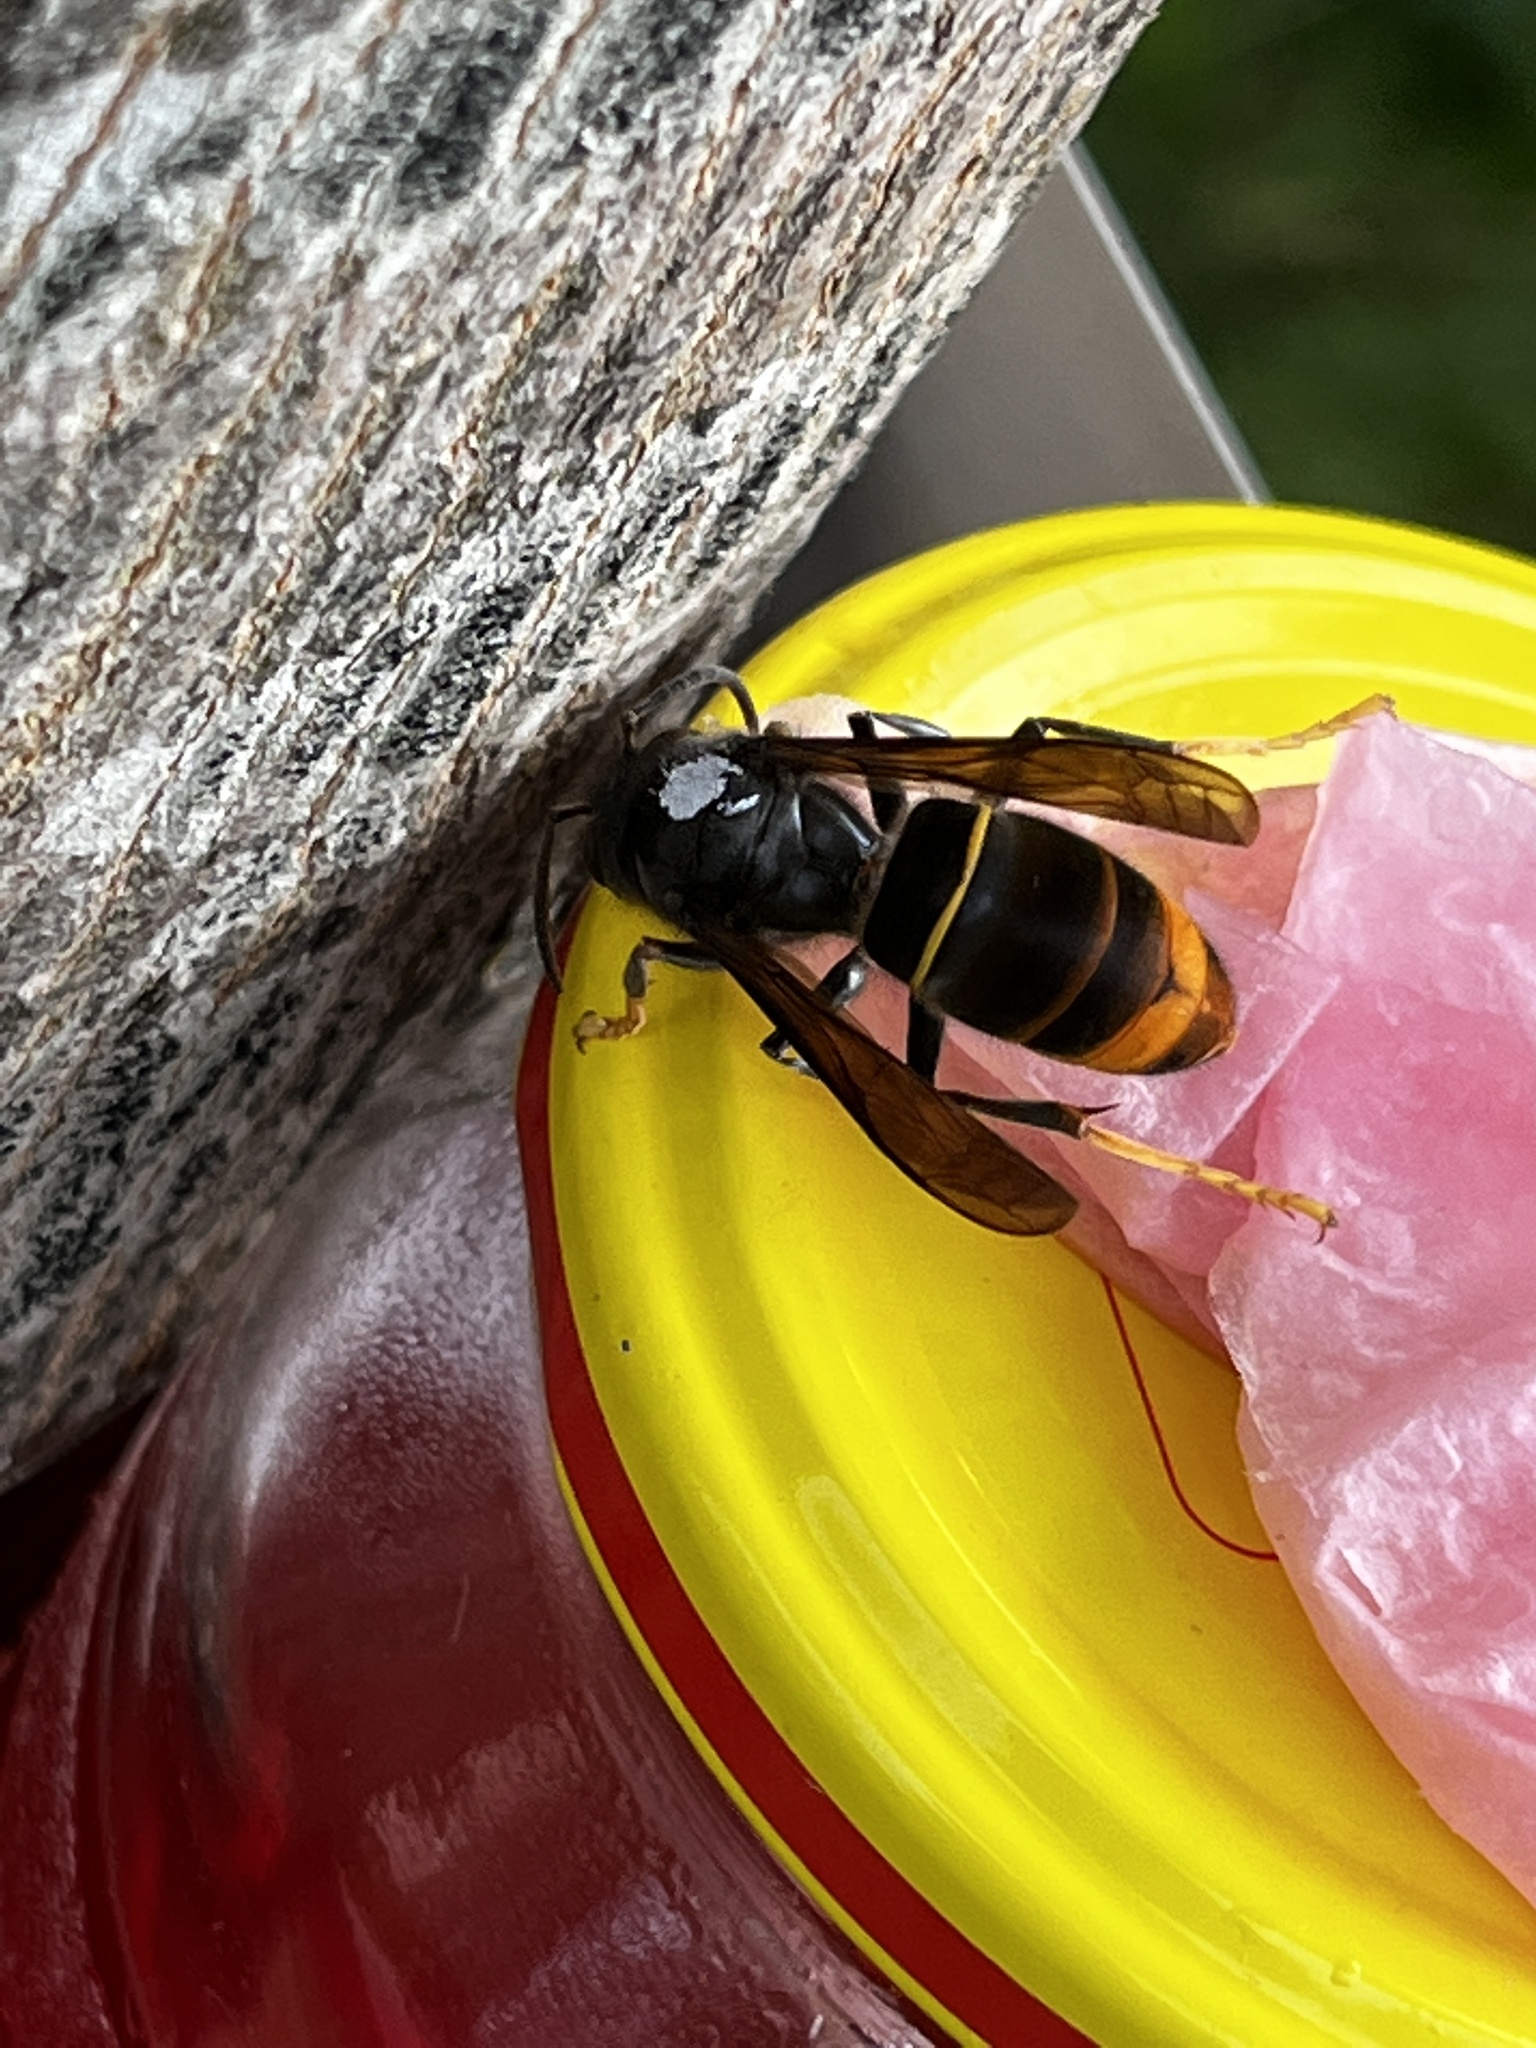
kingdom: Animalia
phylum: Arthropoda
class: Insecta
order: Hymenoptera
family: Vespidae
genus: Vespa
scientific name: Vespa velutina
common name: Asian hornet
